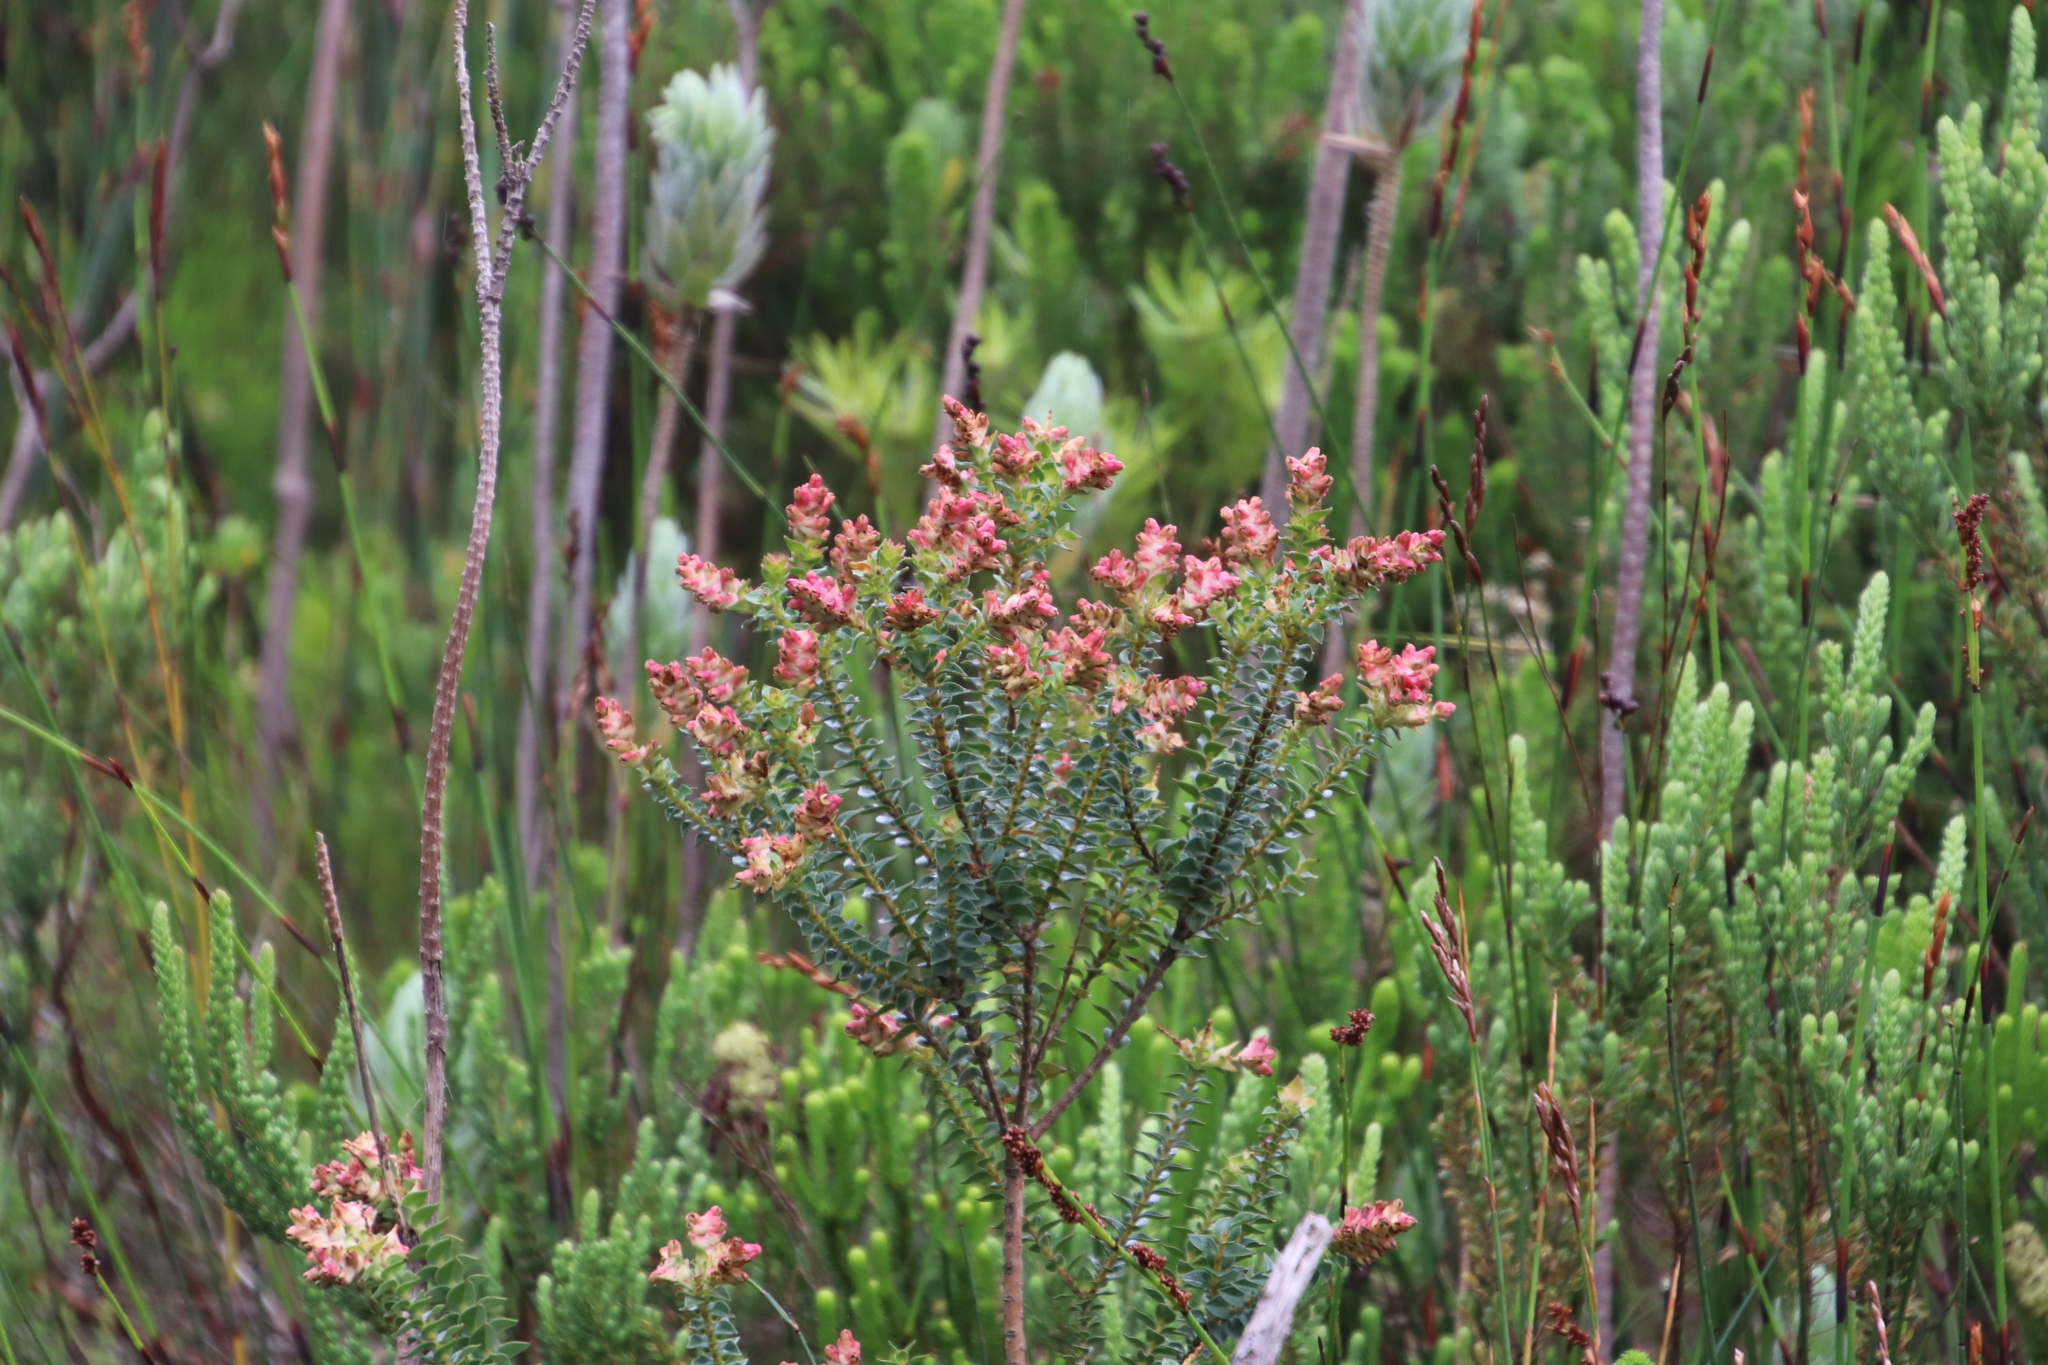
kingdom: Plantae
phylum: Tracheophyta
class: Magnoliopsida
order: Myrtales
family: Penaeaceae
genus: Penaea
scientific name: Penaea cneorum
